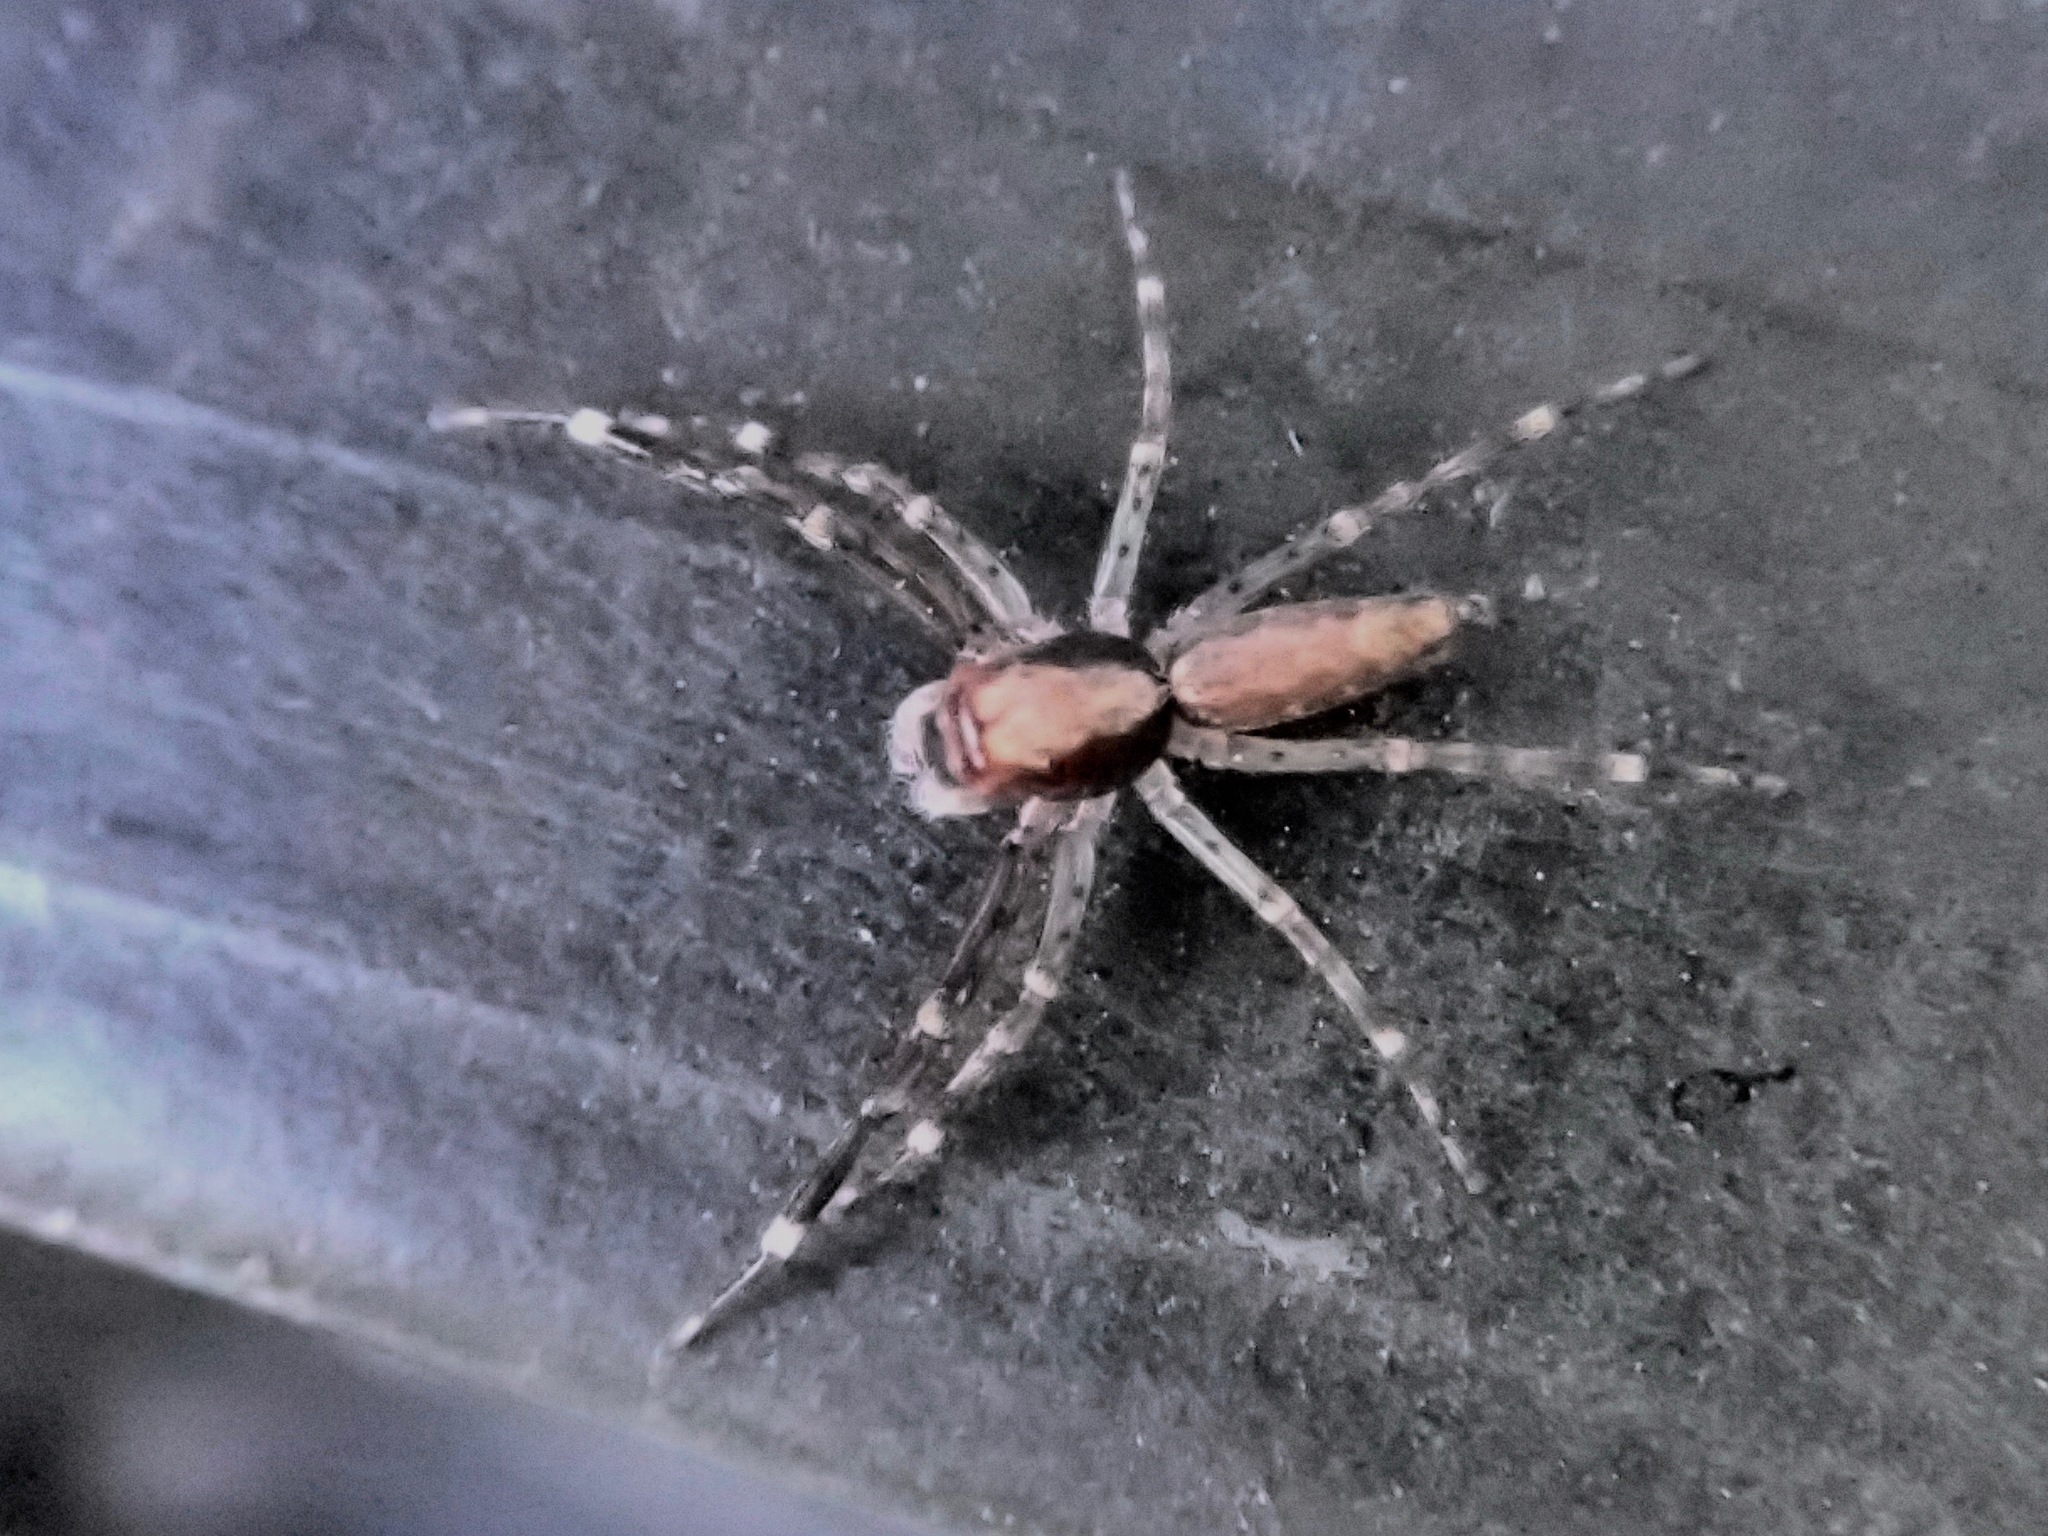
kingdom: Animalia
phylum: Arthropoda
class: Arachnida
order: Araneae
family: Salticidae
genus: Helpis
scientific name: Helpis minitabunda
